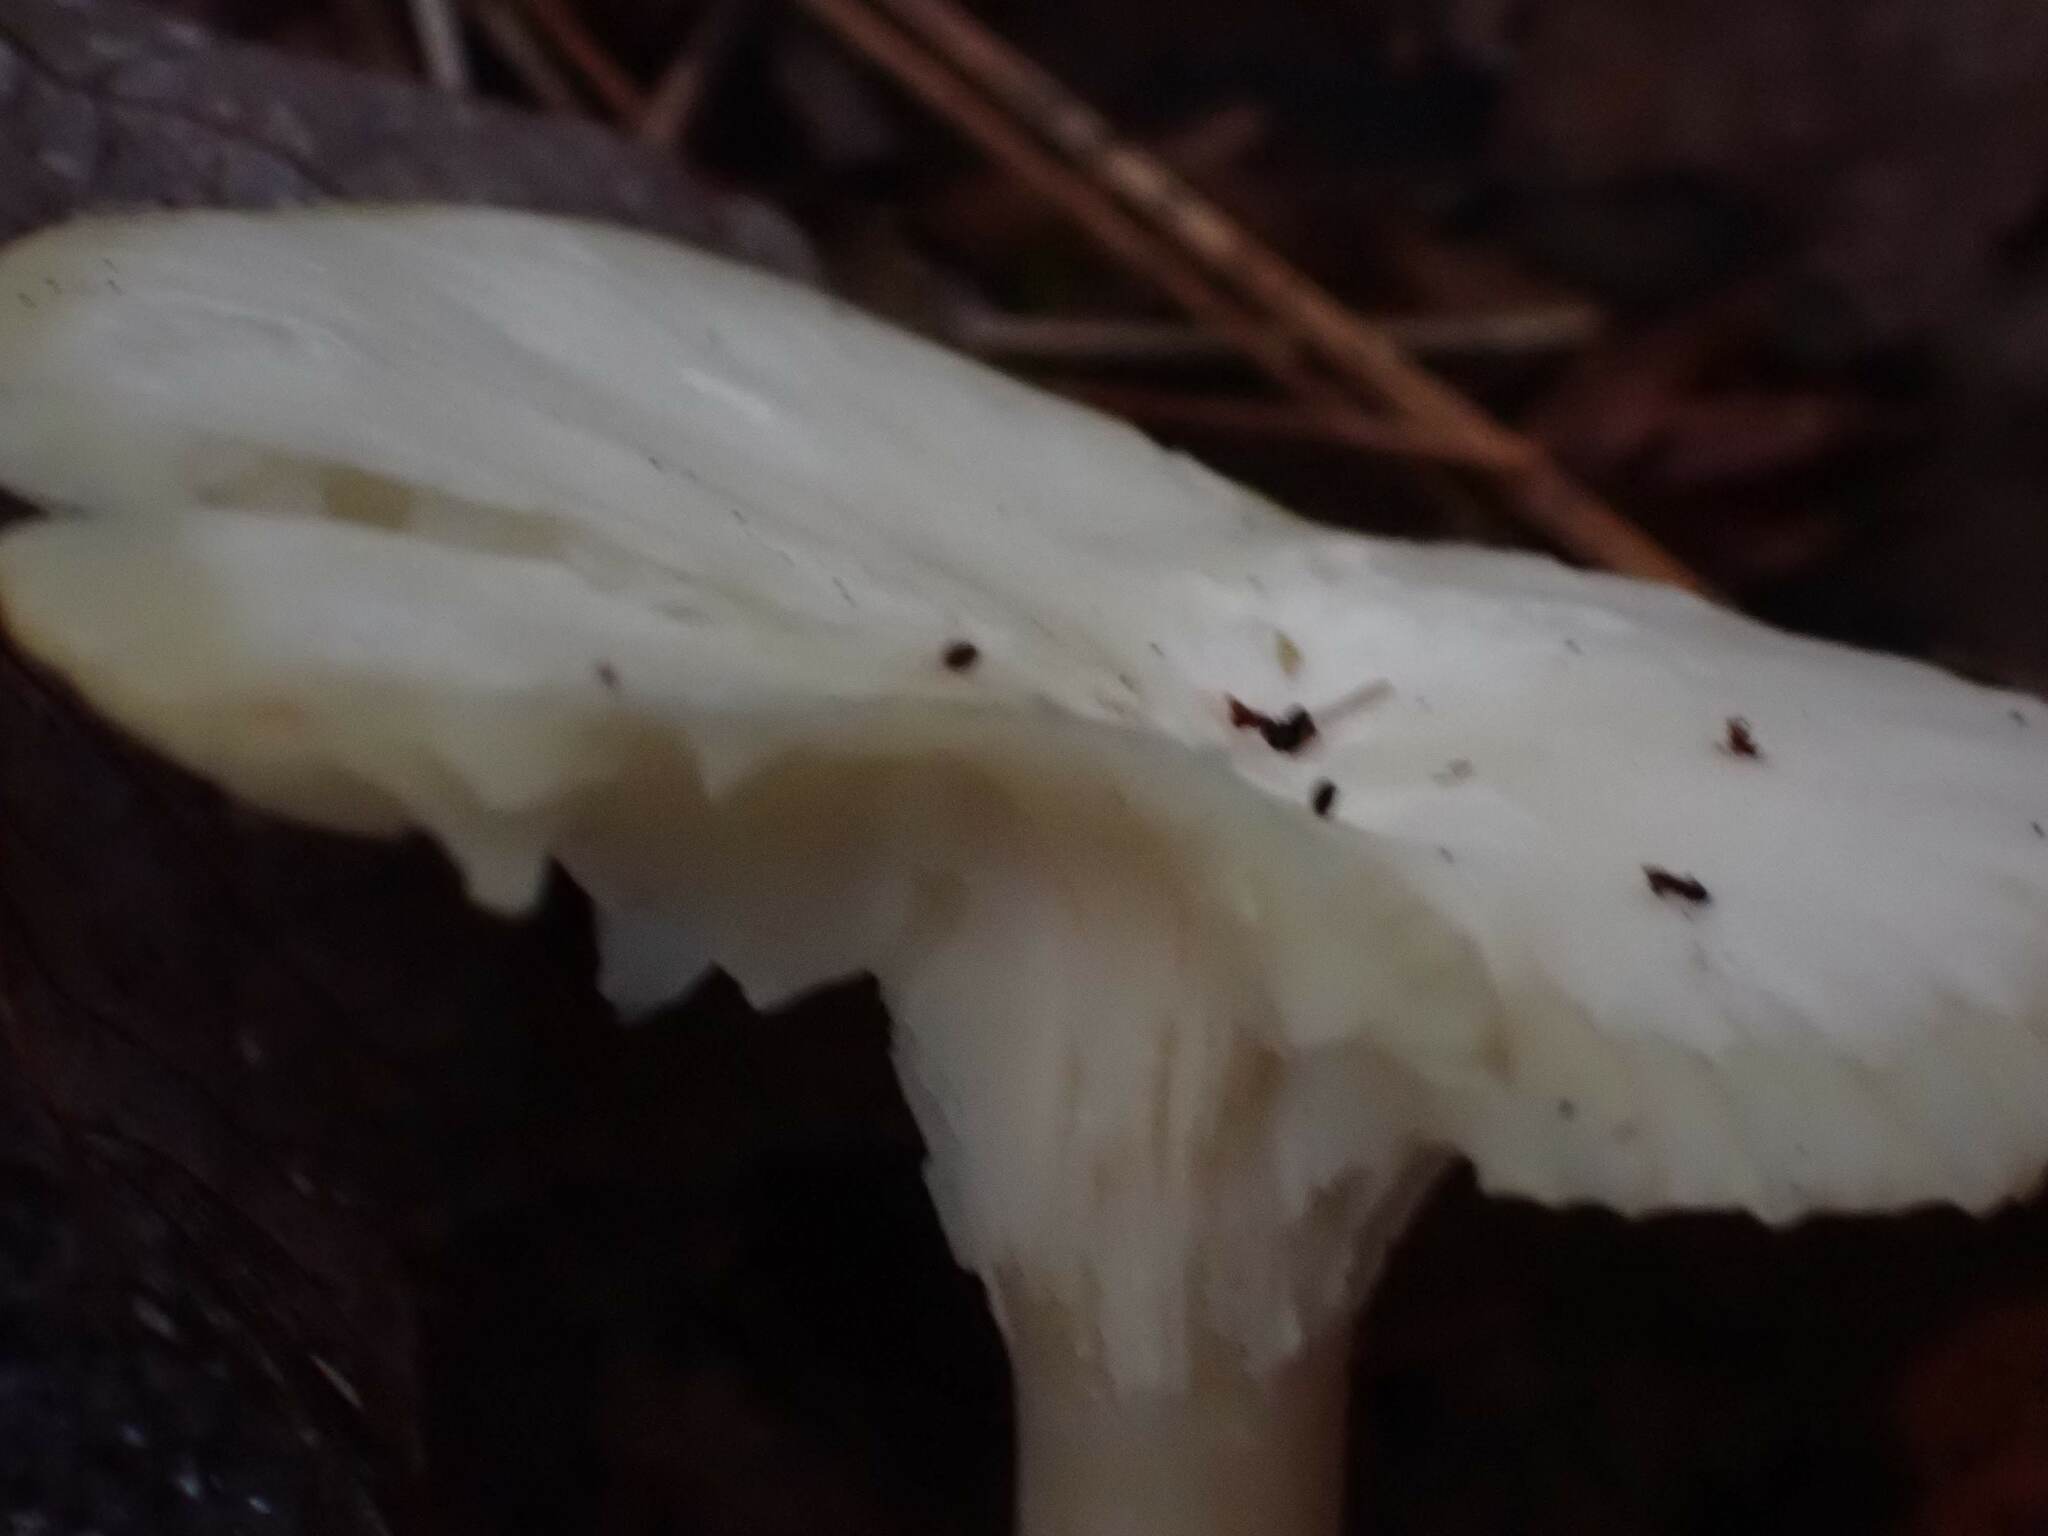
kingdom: Fungi
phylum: Basidiomycota
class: Agaricomycetes
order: Agaricales
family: Hygrophoraceae
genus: Cuphophyllus
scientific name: Cuphophyllus virgineus
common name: Snowy waxcap
